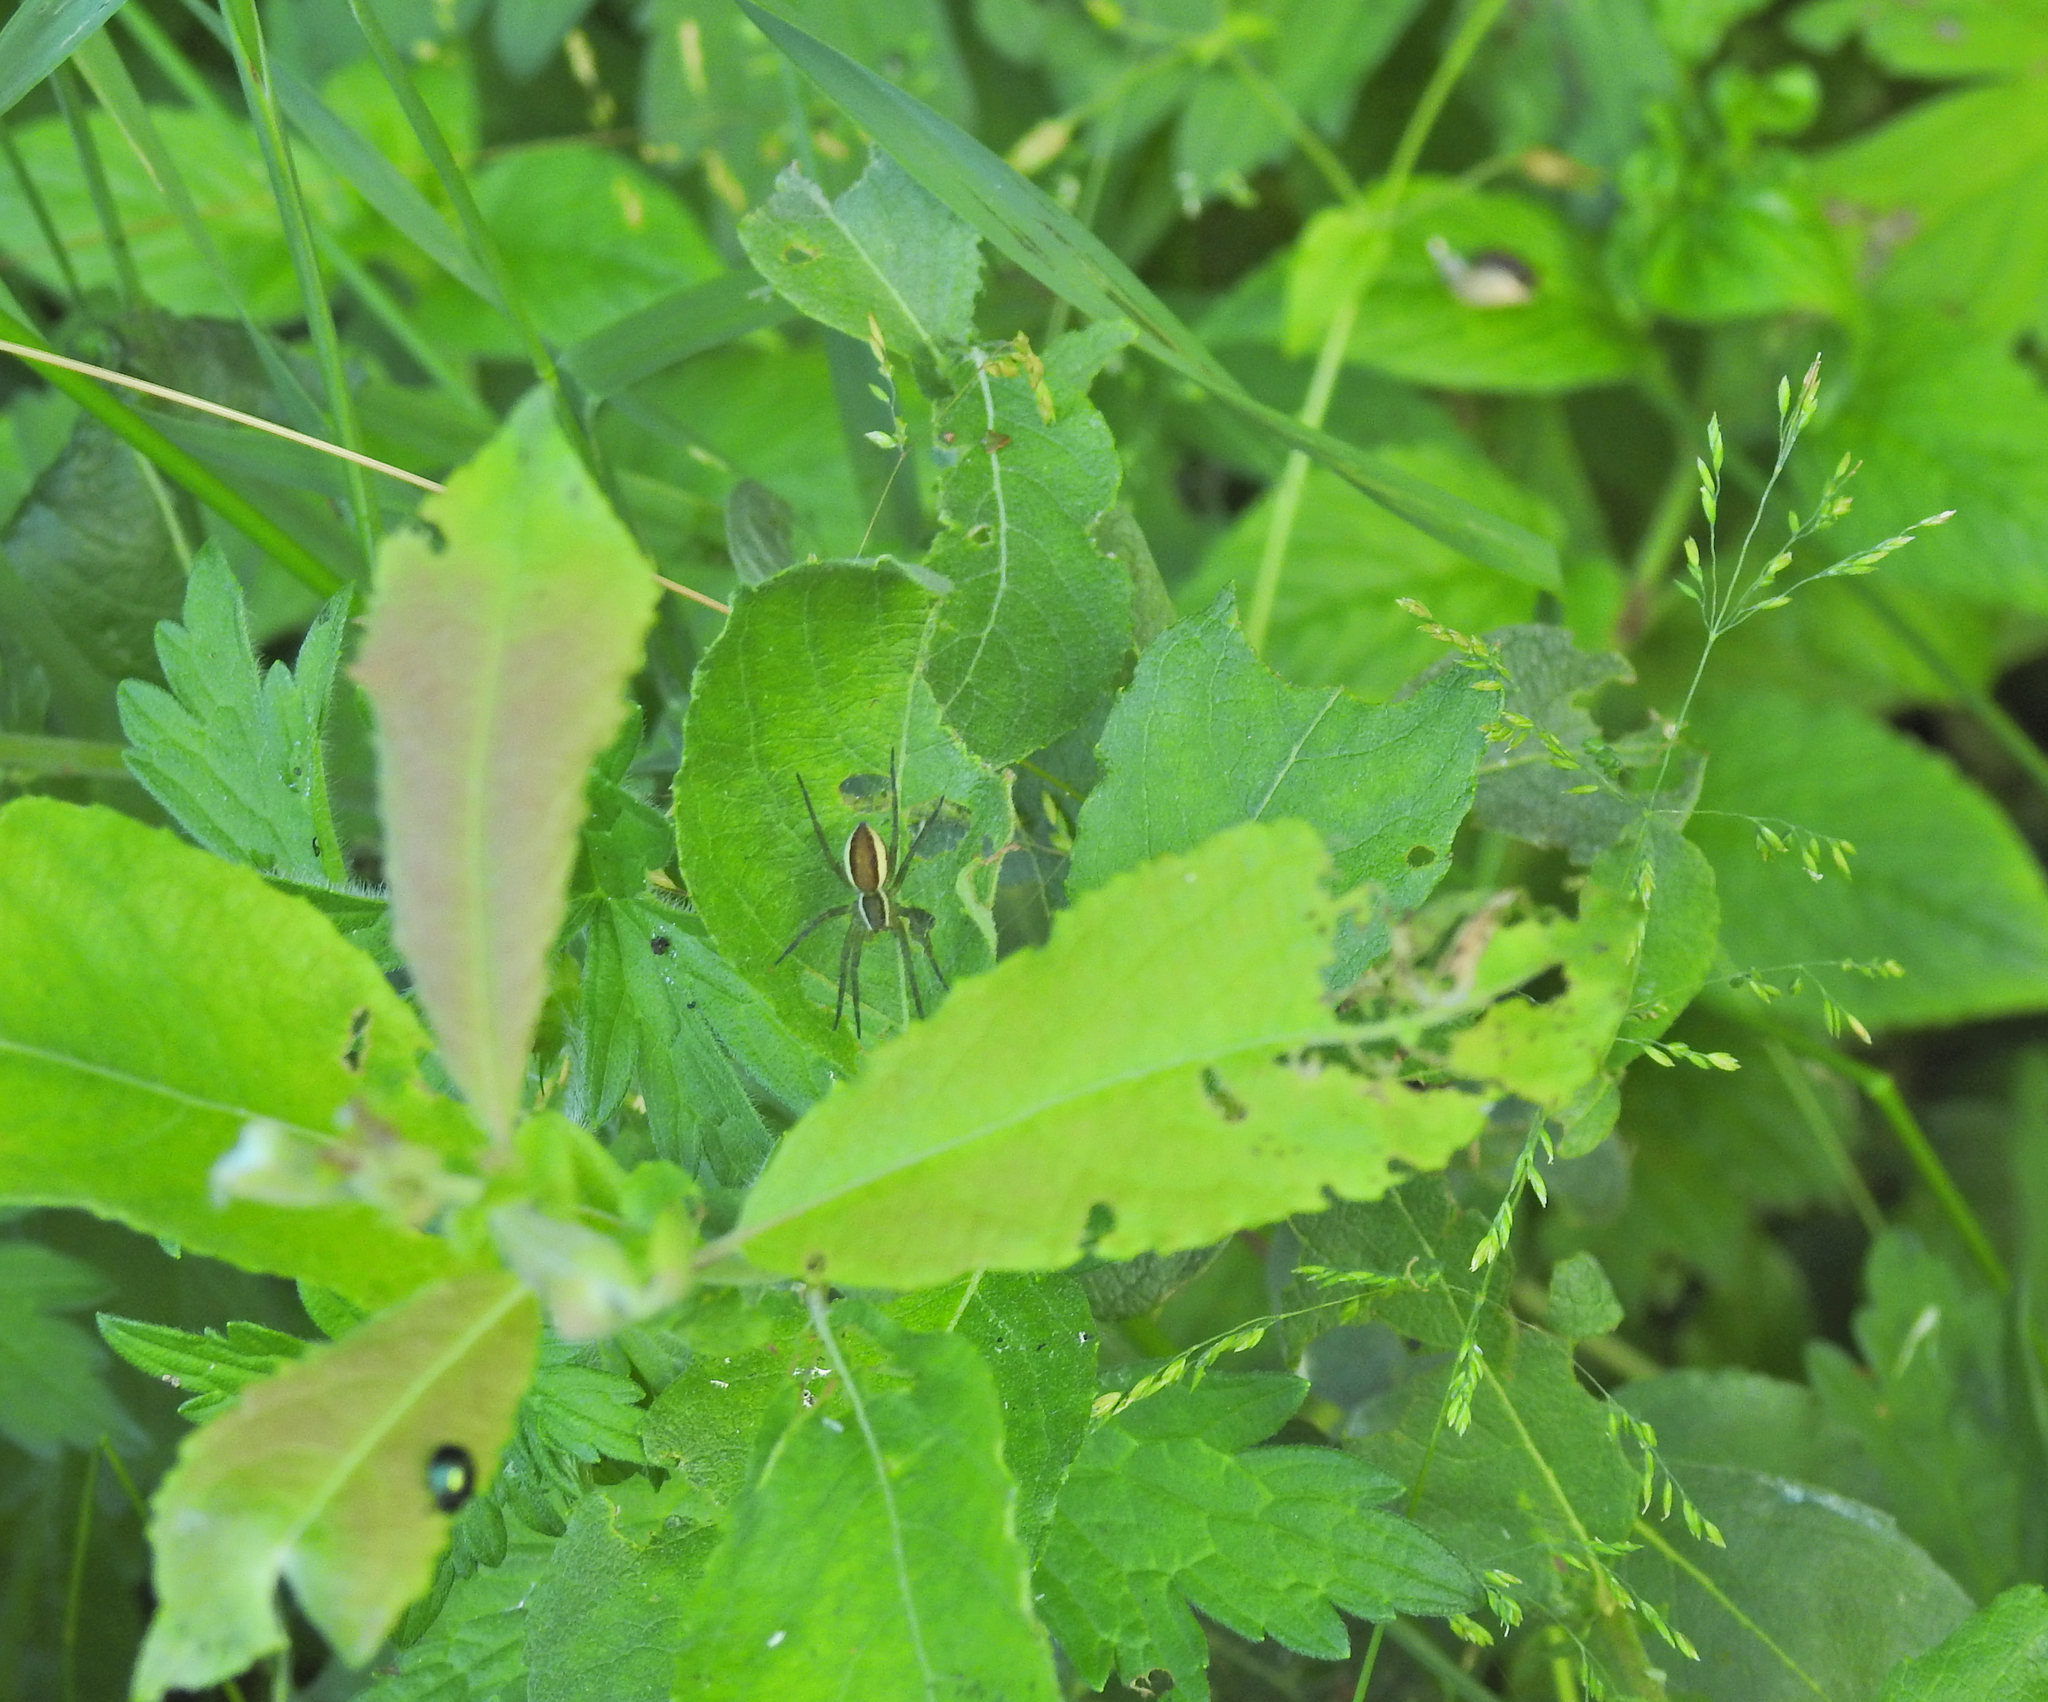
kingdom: Animalia
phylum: Arthropoda
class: Arachnida
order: Araneae
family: Pisauridae
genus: Dolomedes
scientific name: Dolomedes
